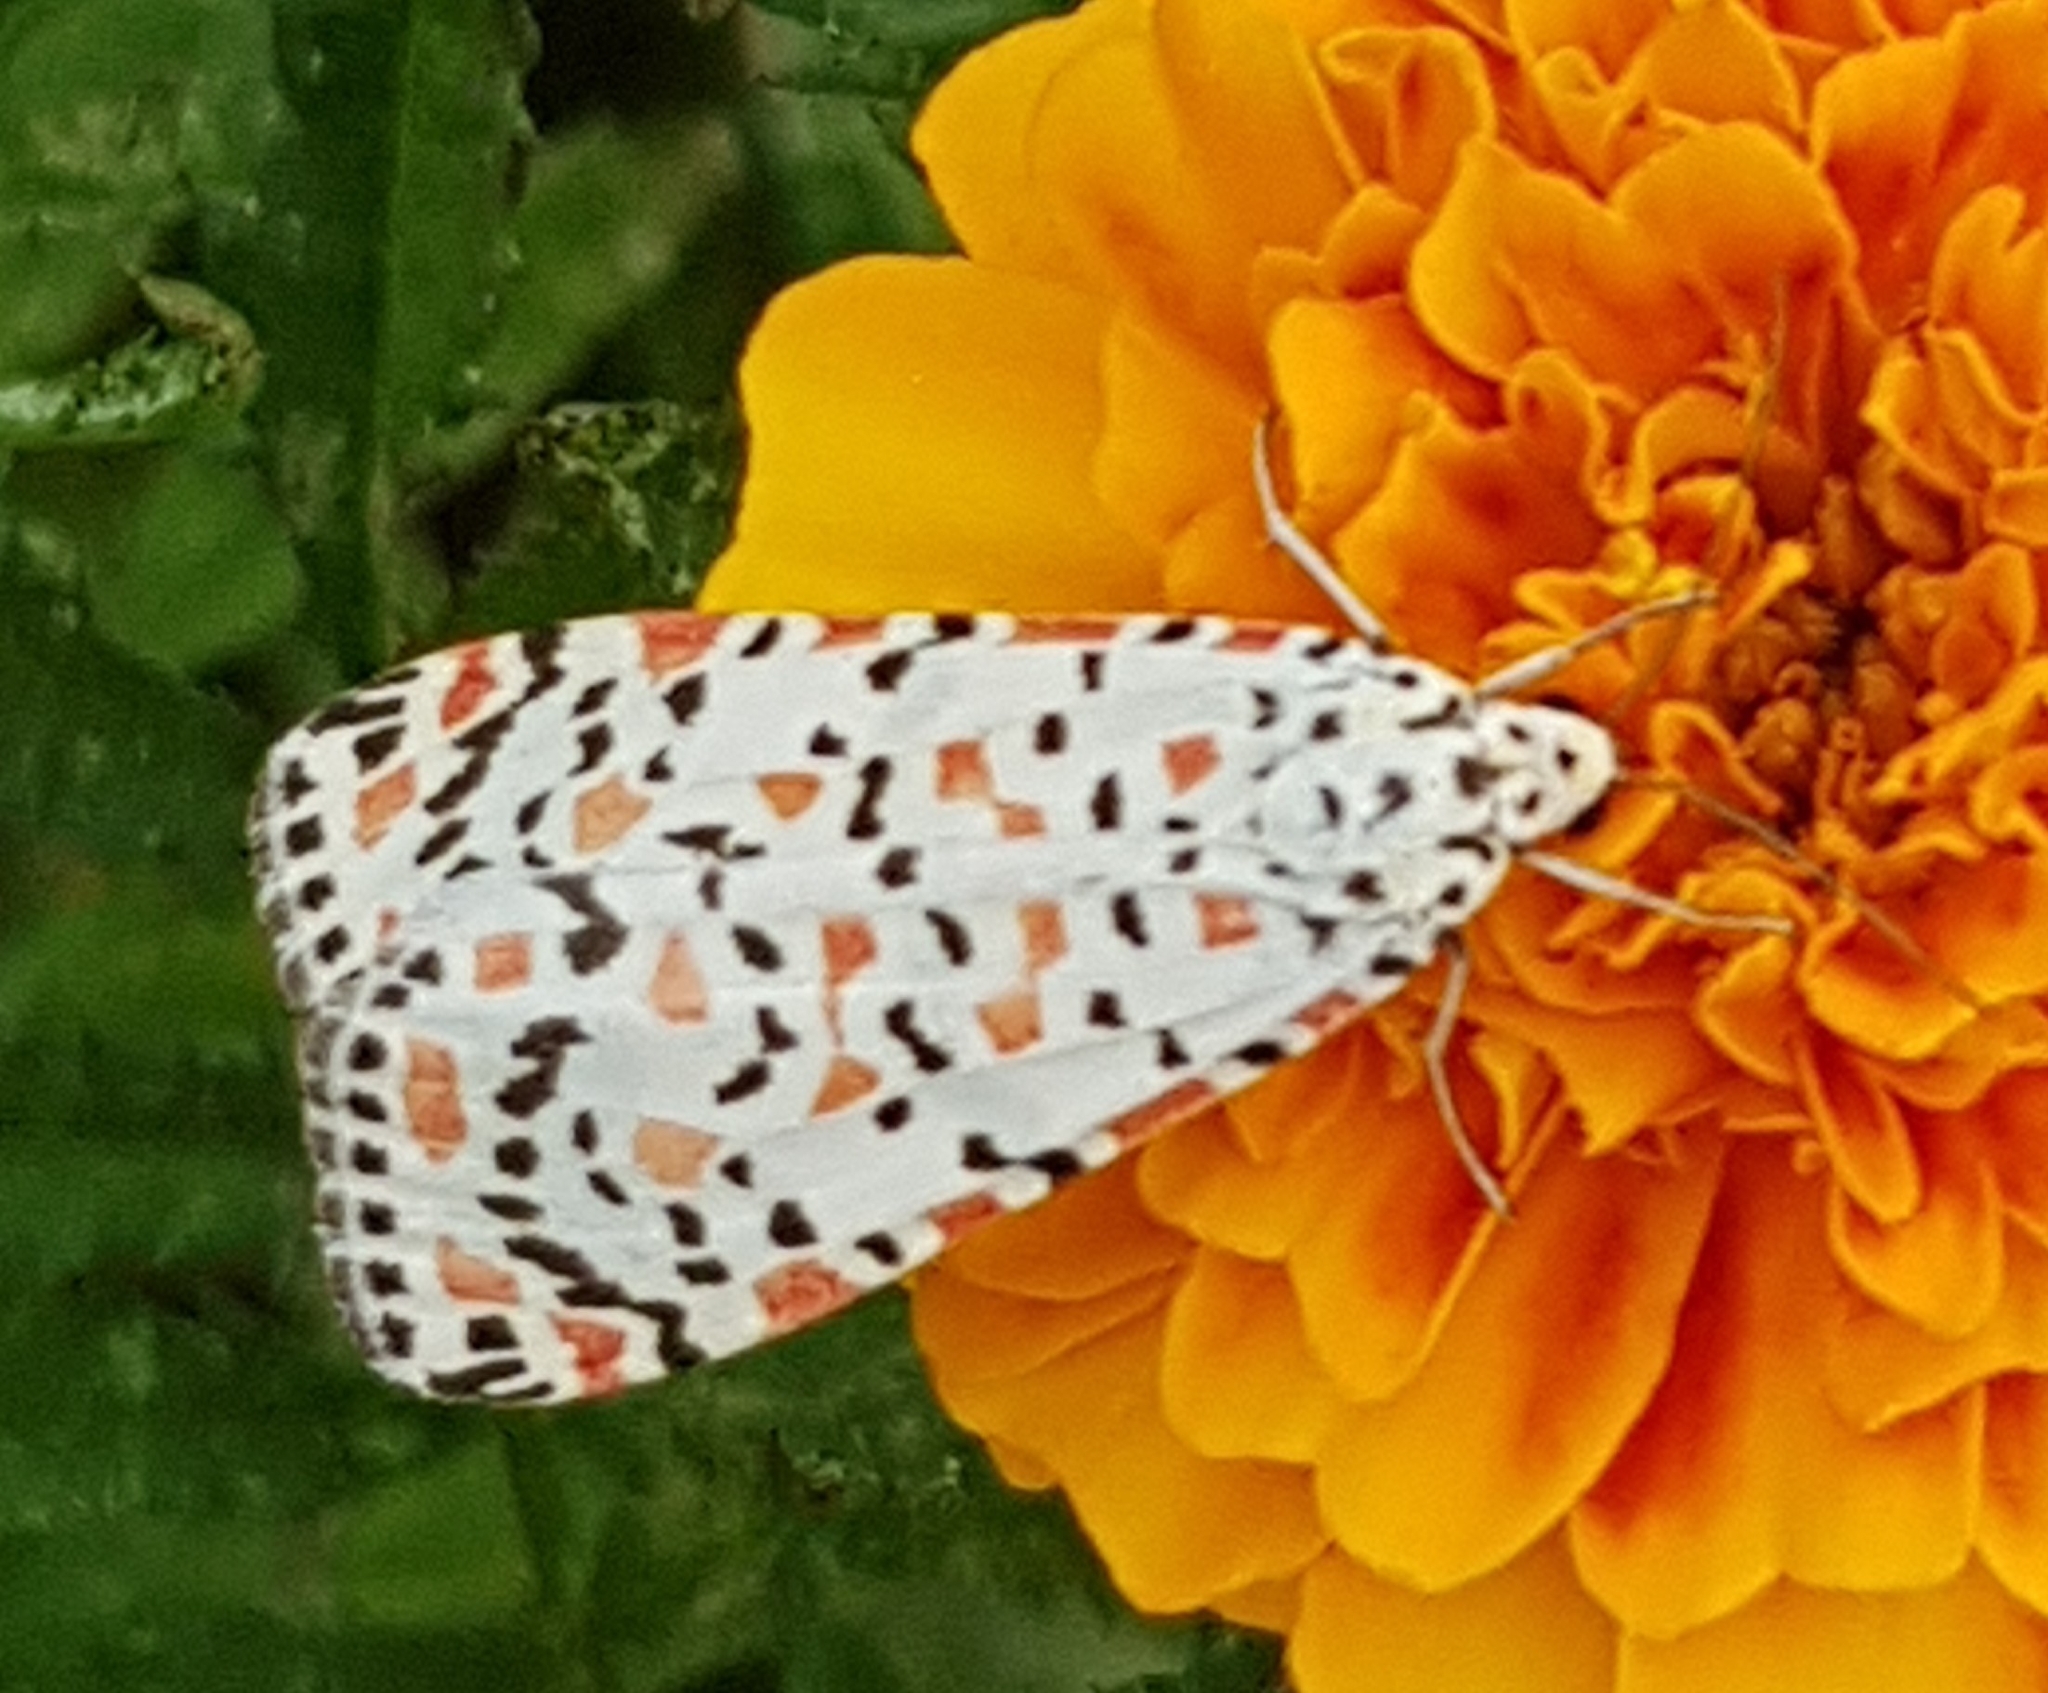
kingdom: Animalia
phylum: Arthropoda
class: Insecta
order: Lepidoptera
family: Erebidae
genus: Utetheisa
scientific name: Utetheisa pulchella
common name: Crimson speckled
